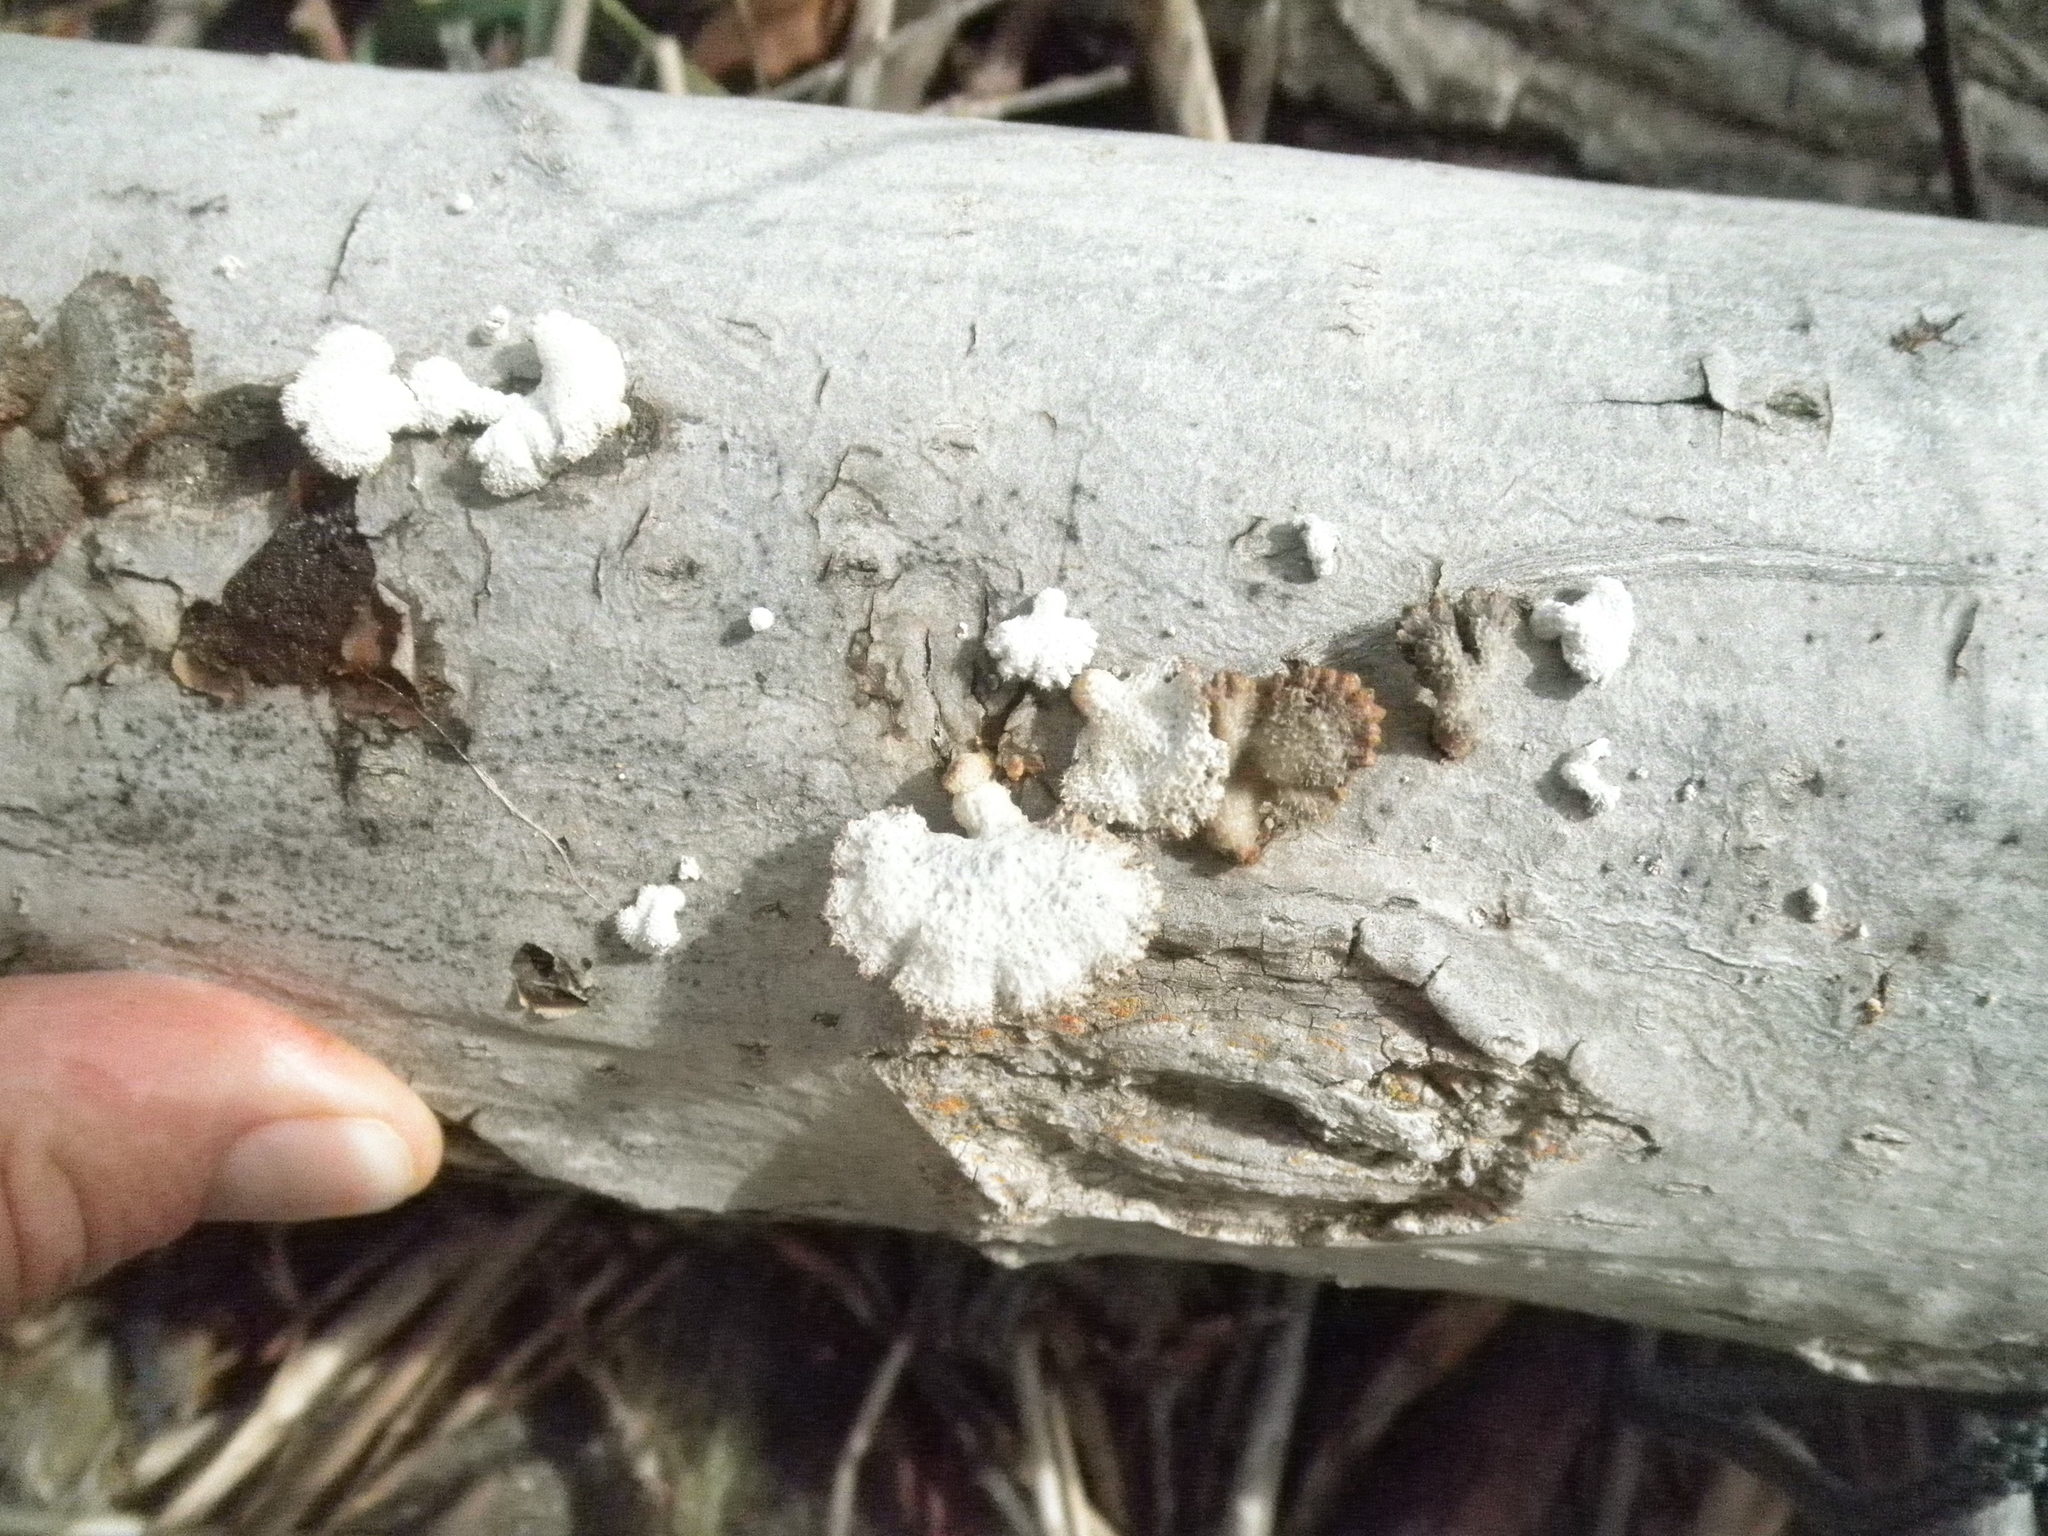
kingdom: Fungi
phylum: Basidiomycota
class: Agaricomycetes
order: Agaricales
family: Schizophyllaceae
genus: Schizophyllum
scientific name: Schizophyllum commune
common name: Common porecrust
